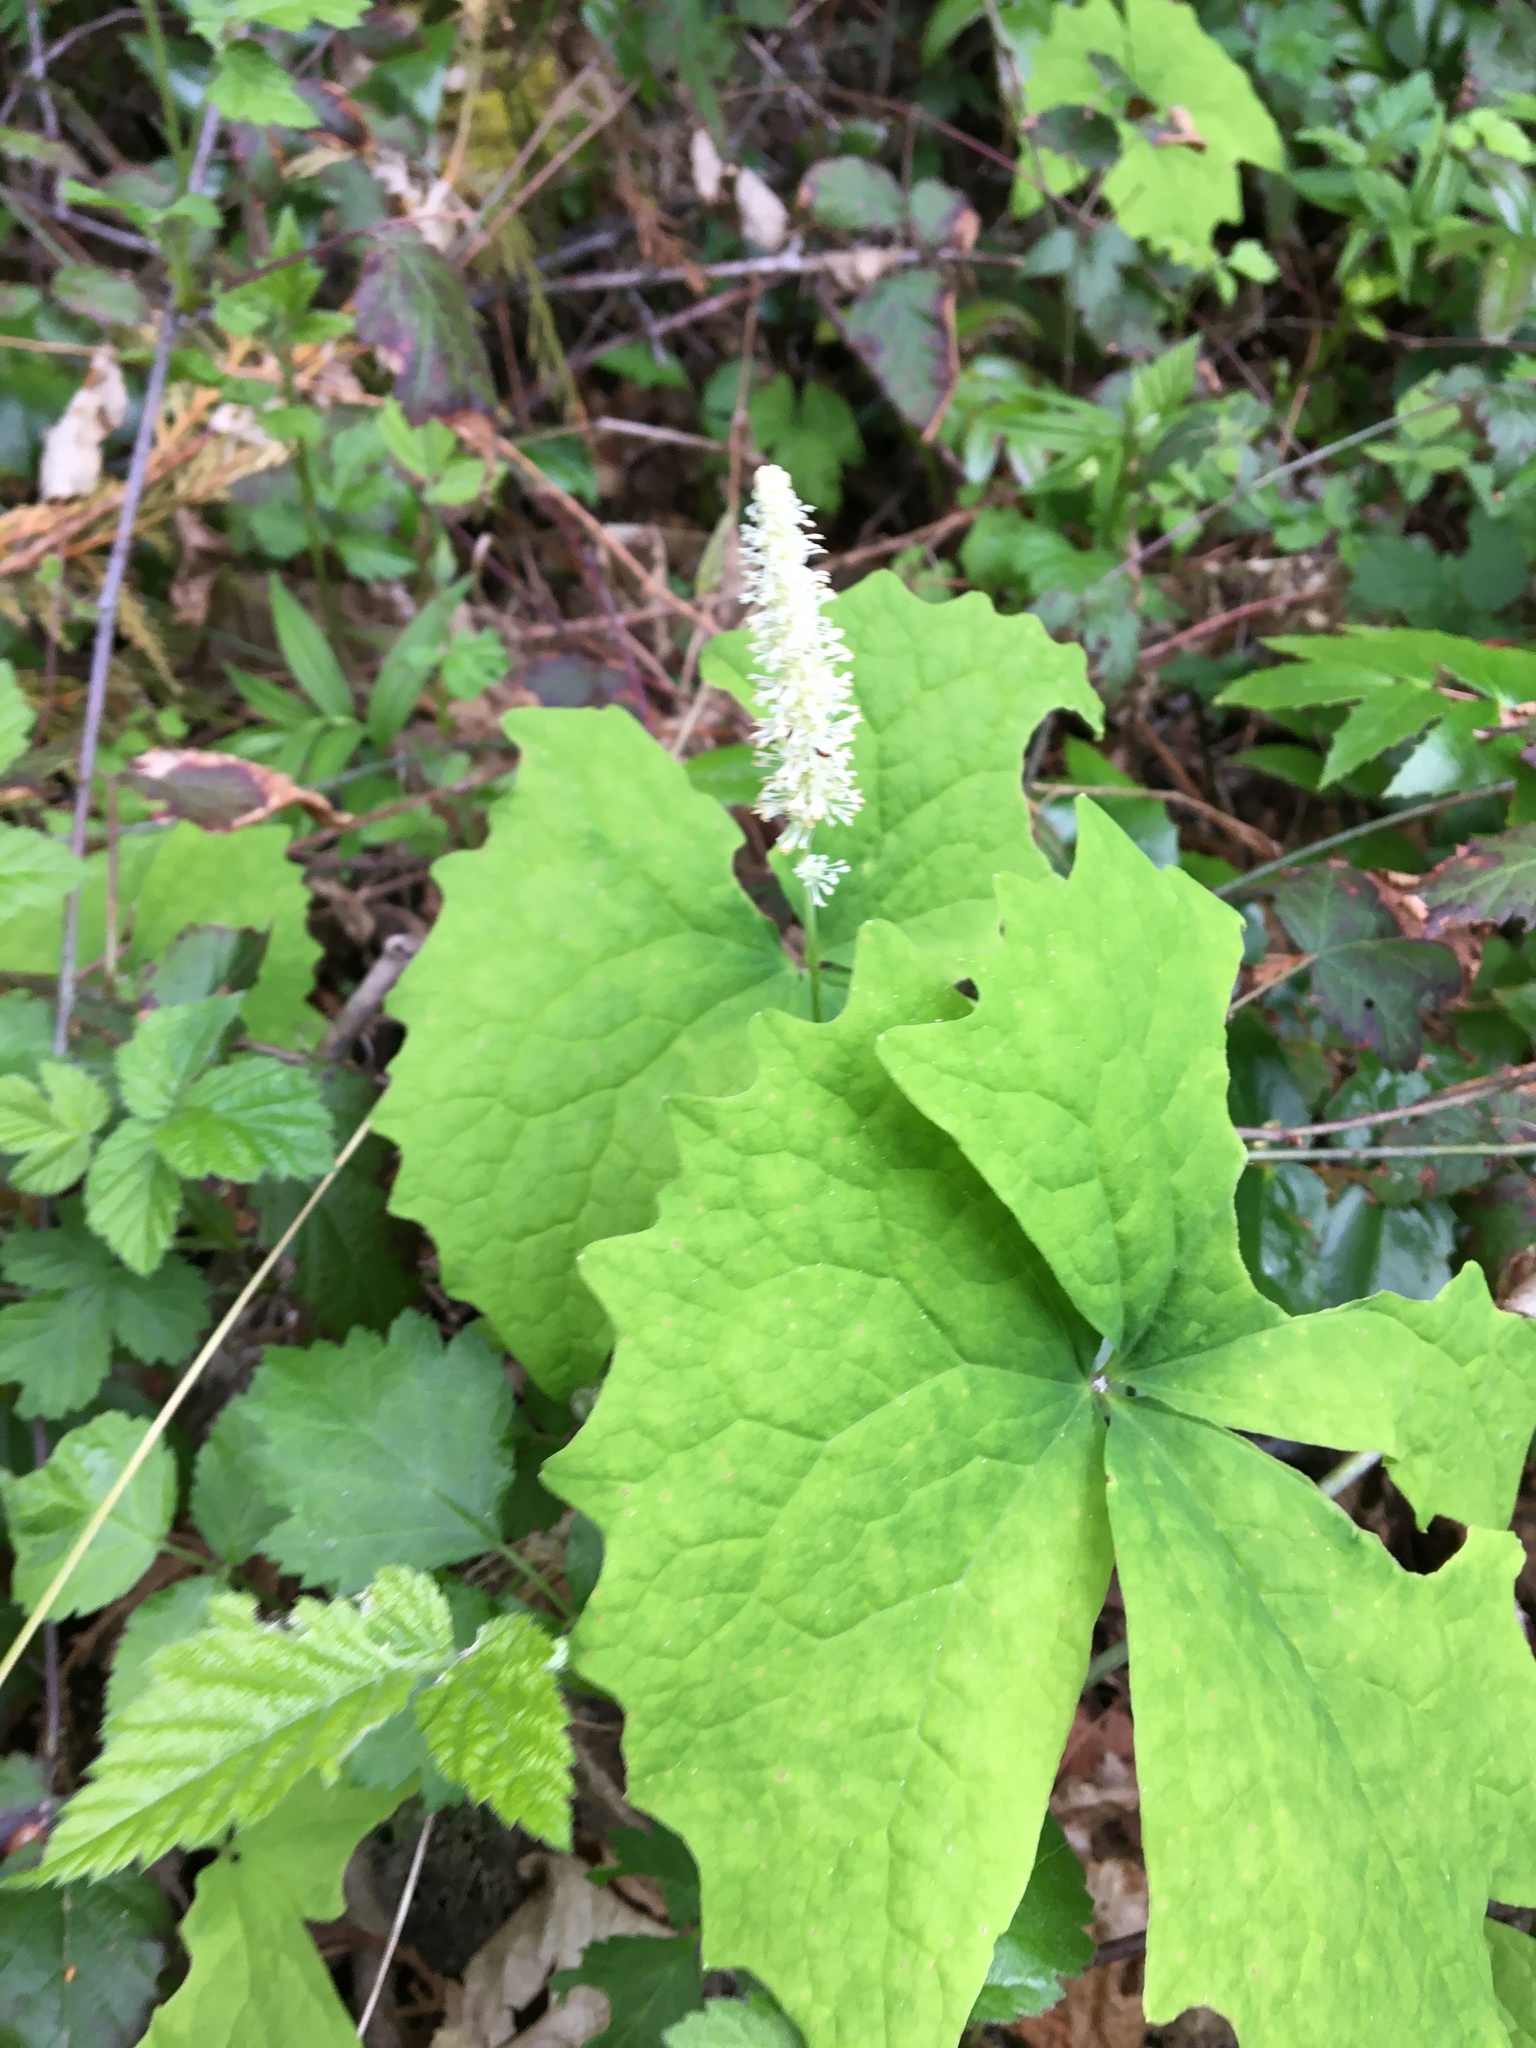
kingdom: Plantae
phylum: Tracheophyta
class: Magnoliopsida
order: Ranunculales
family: Berberidaceae
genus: Achlys
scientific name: Achlys triphylla
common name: Vanilla-leaf
